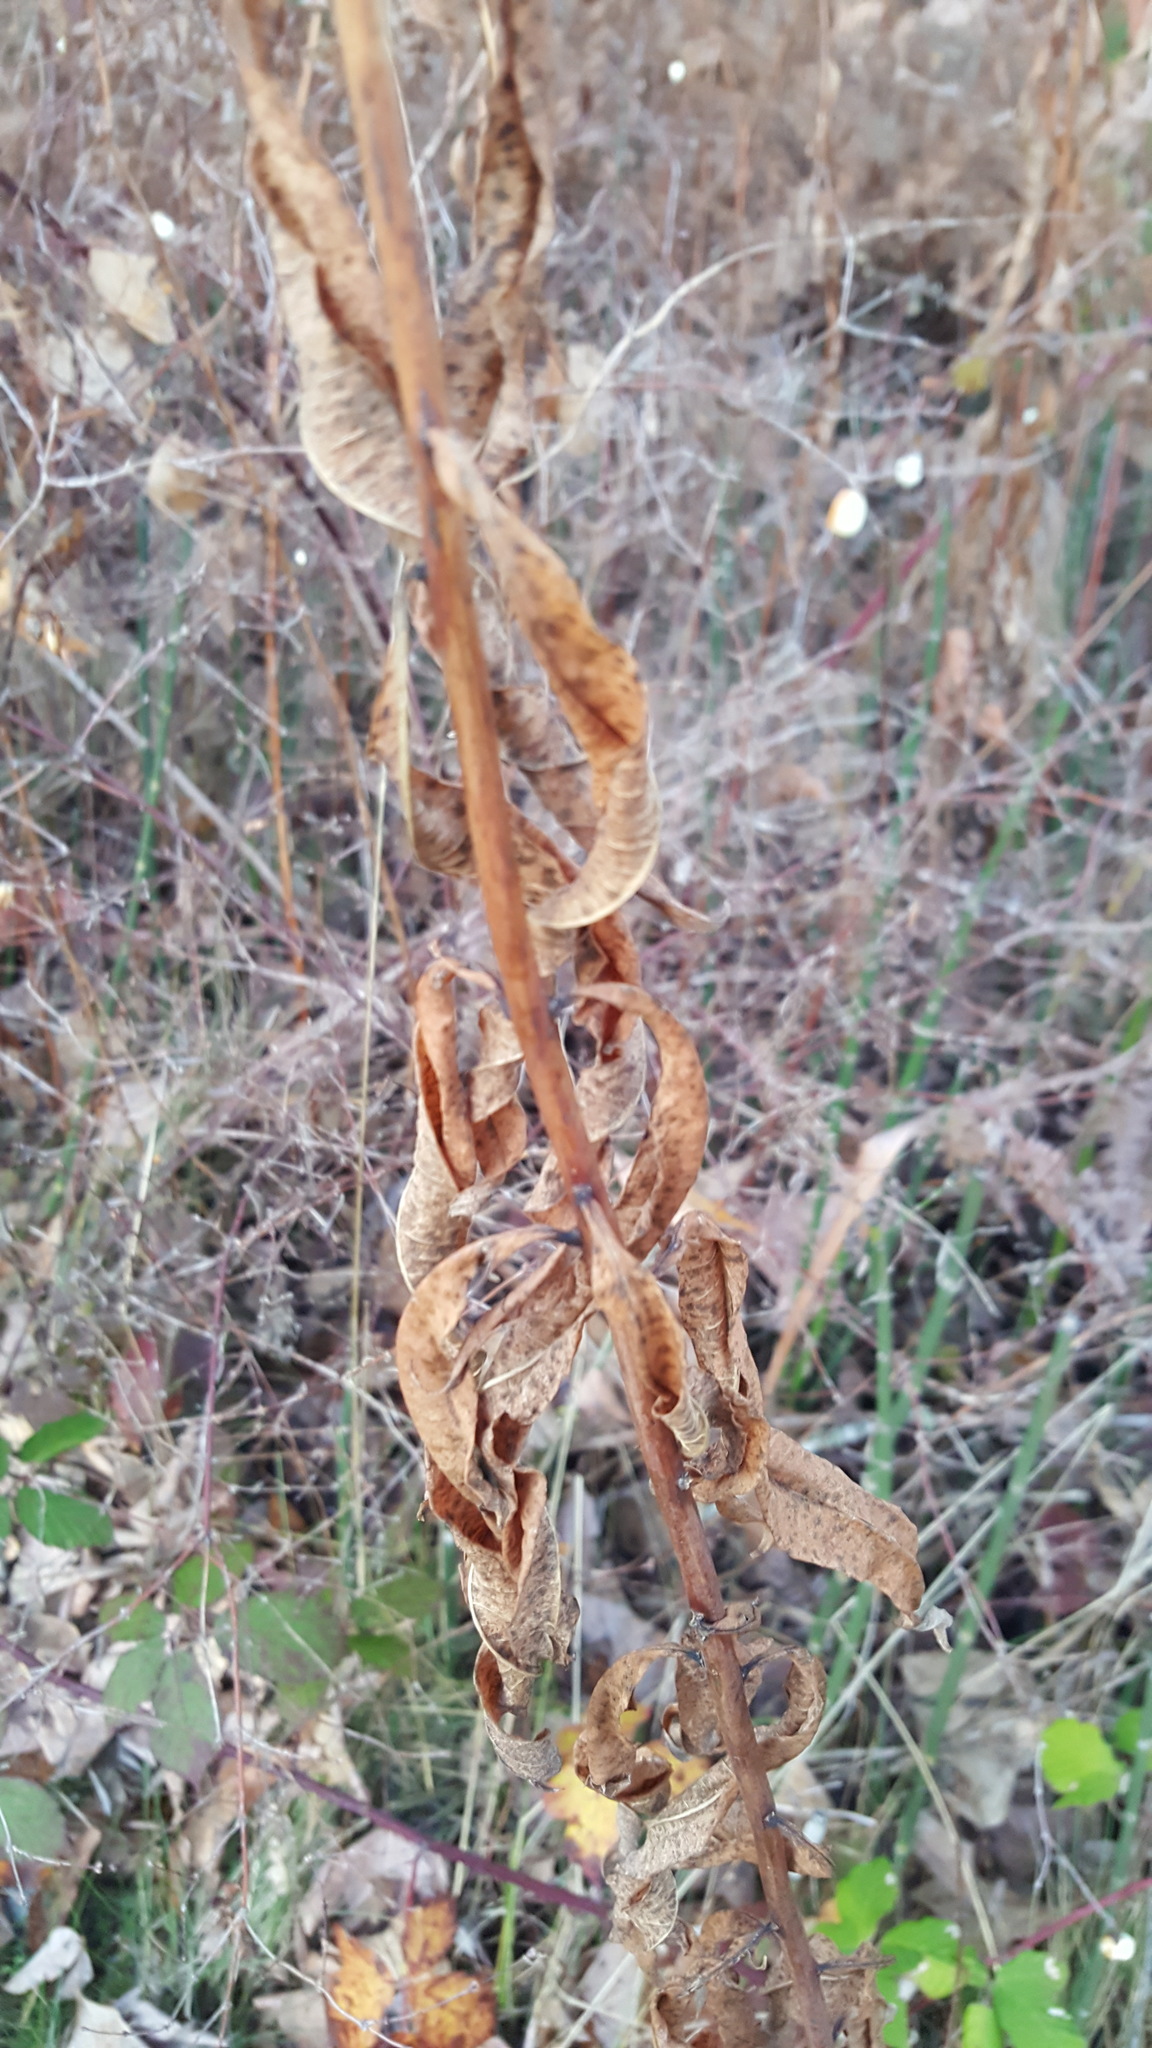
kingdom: Plantae
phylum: Tracheophyta
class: Magnoliopsida
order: Myrtales
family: Onagraceae
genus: Chamaenerion
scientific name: Chamaenerion angustifolium
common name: Fireweed
